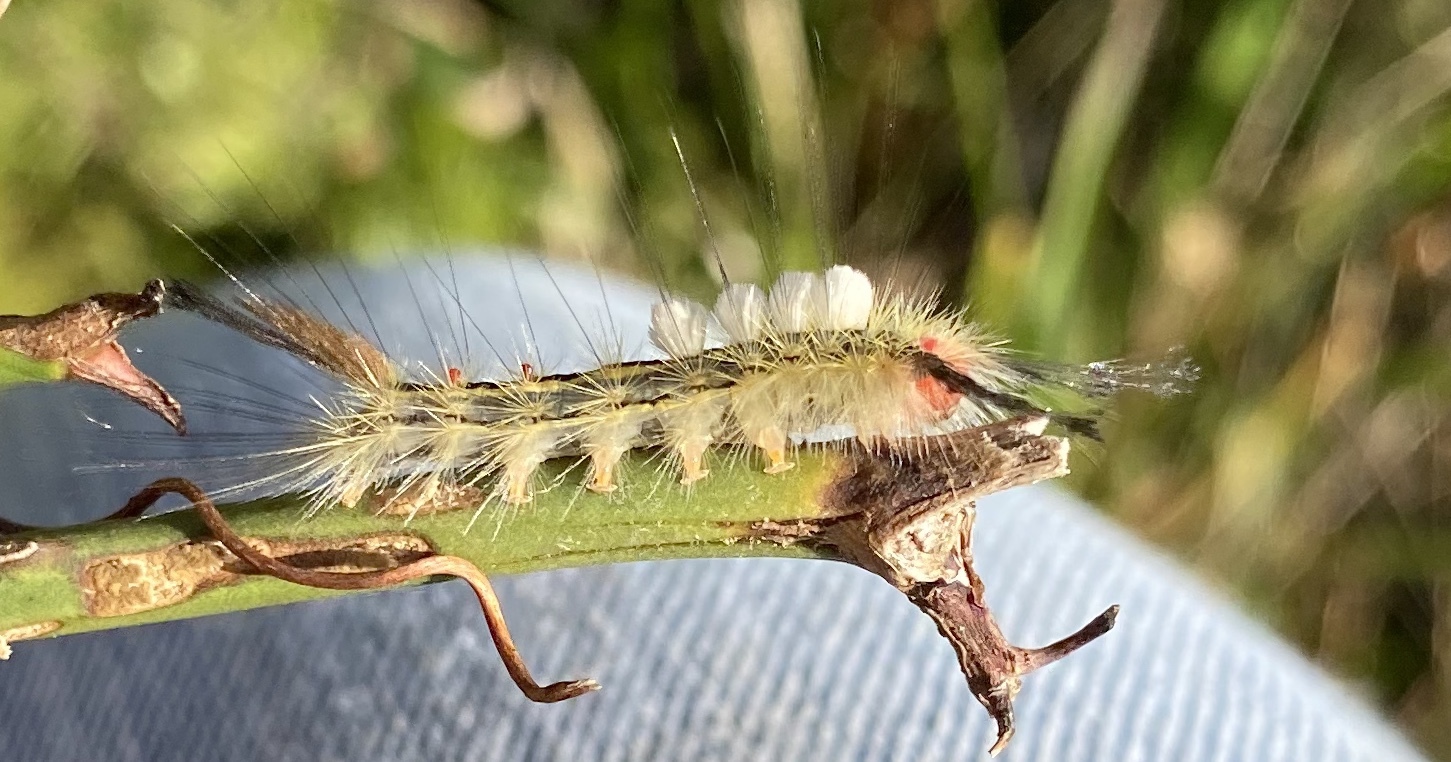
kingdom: Animalia
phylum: Arthropoda
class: Insecta
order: Lepidoptera
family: Erebidae
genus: Orgyia
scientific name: Orgyia leucostigma
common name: White-marked tussock moth
